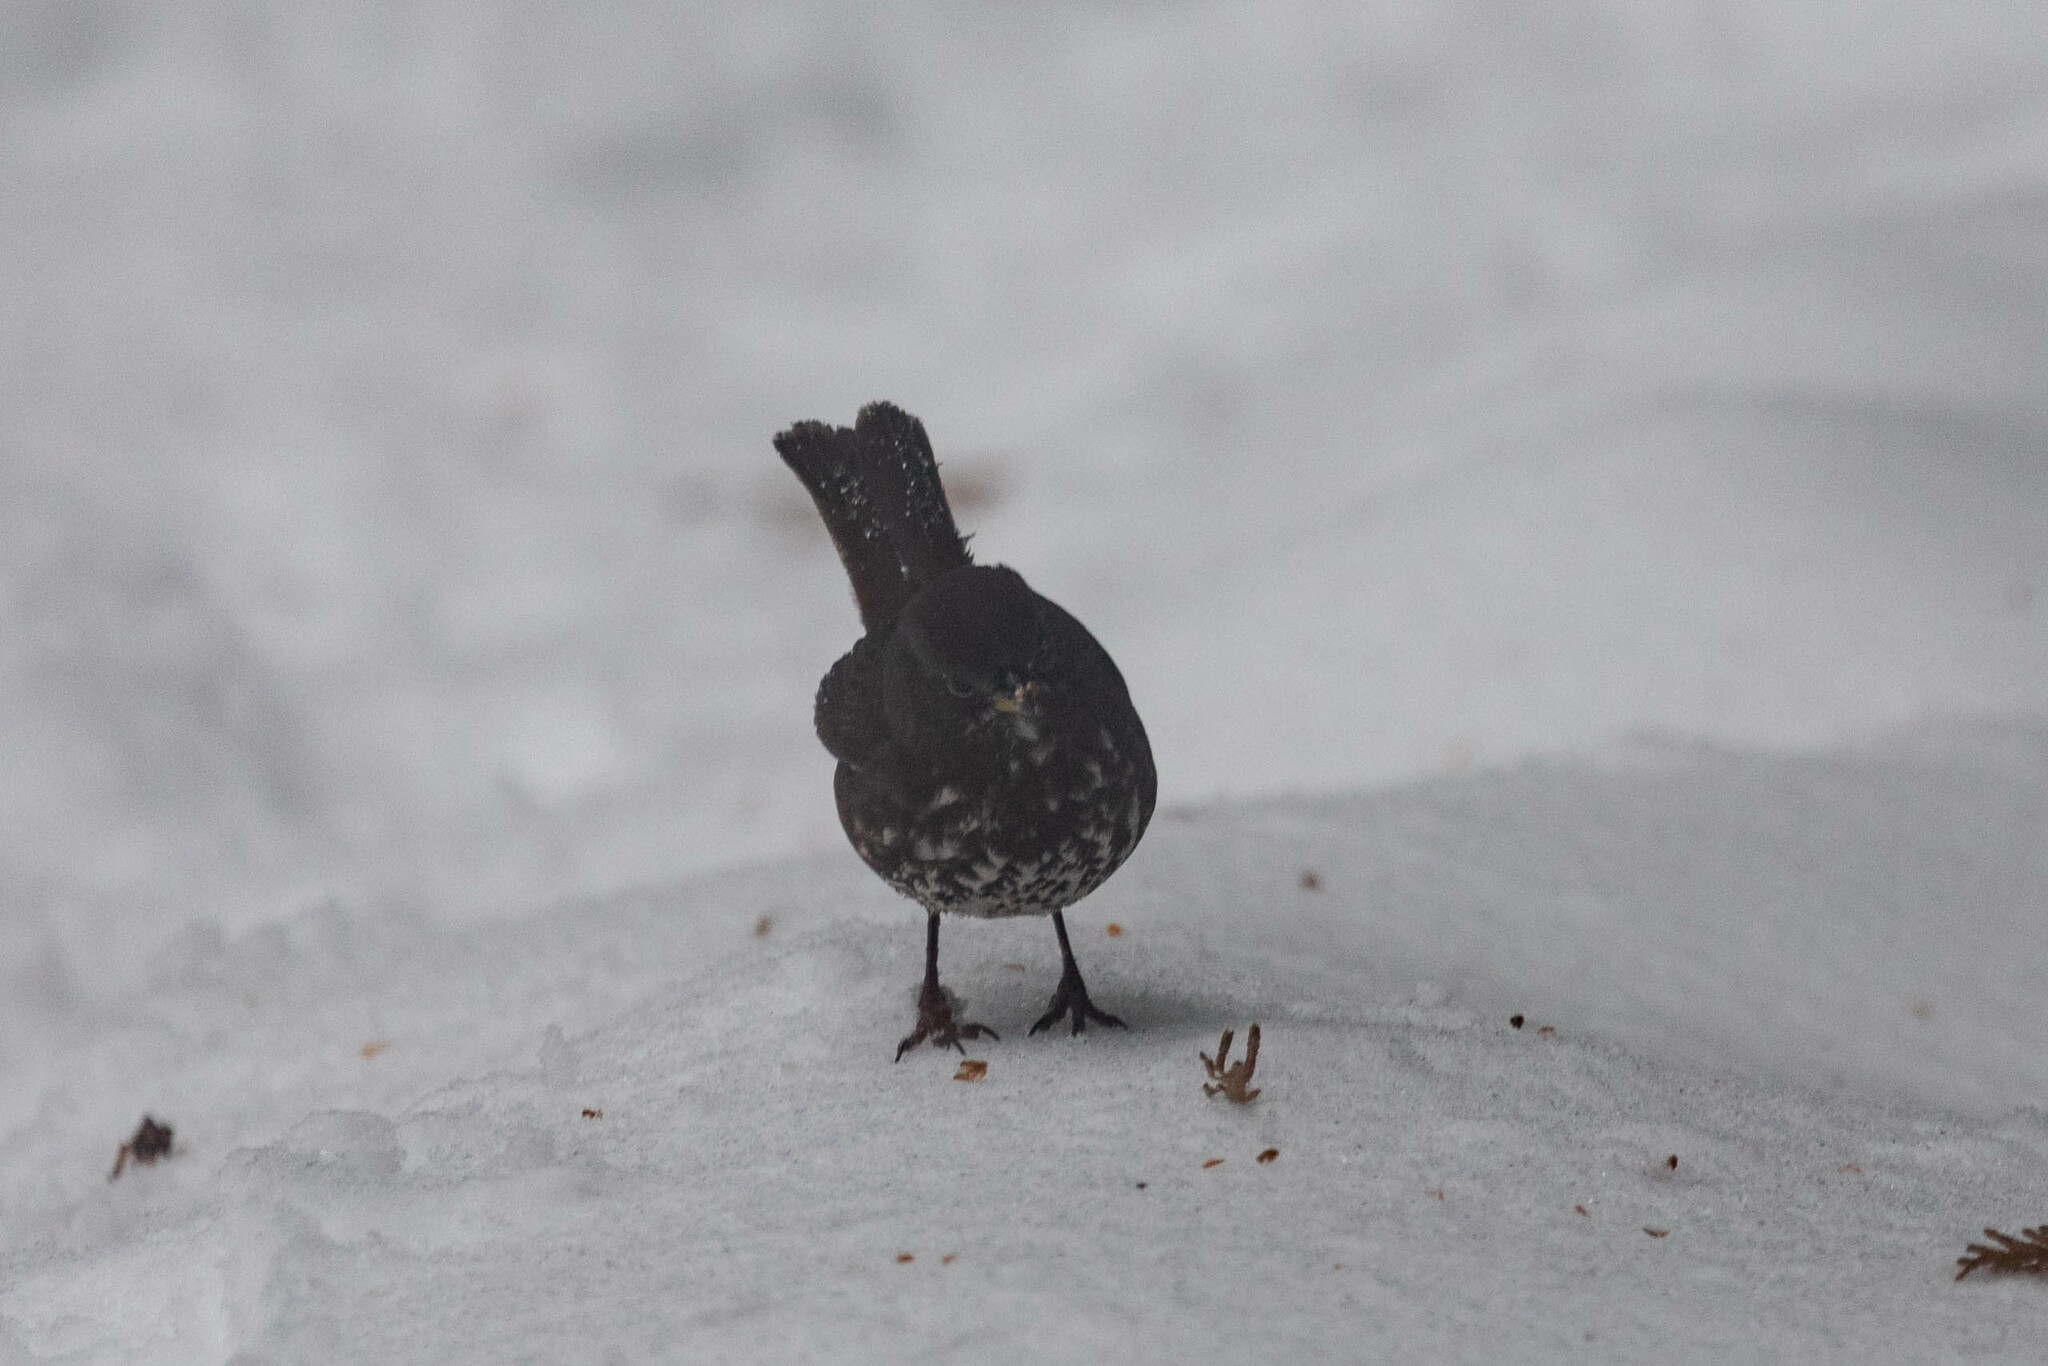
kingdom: Animalia
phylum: Chordata
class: Aves
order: Passeriformes
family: Passerellidae
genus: Passerella
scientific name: Passerella iliaca
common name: Fox sparrow
